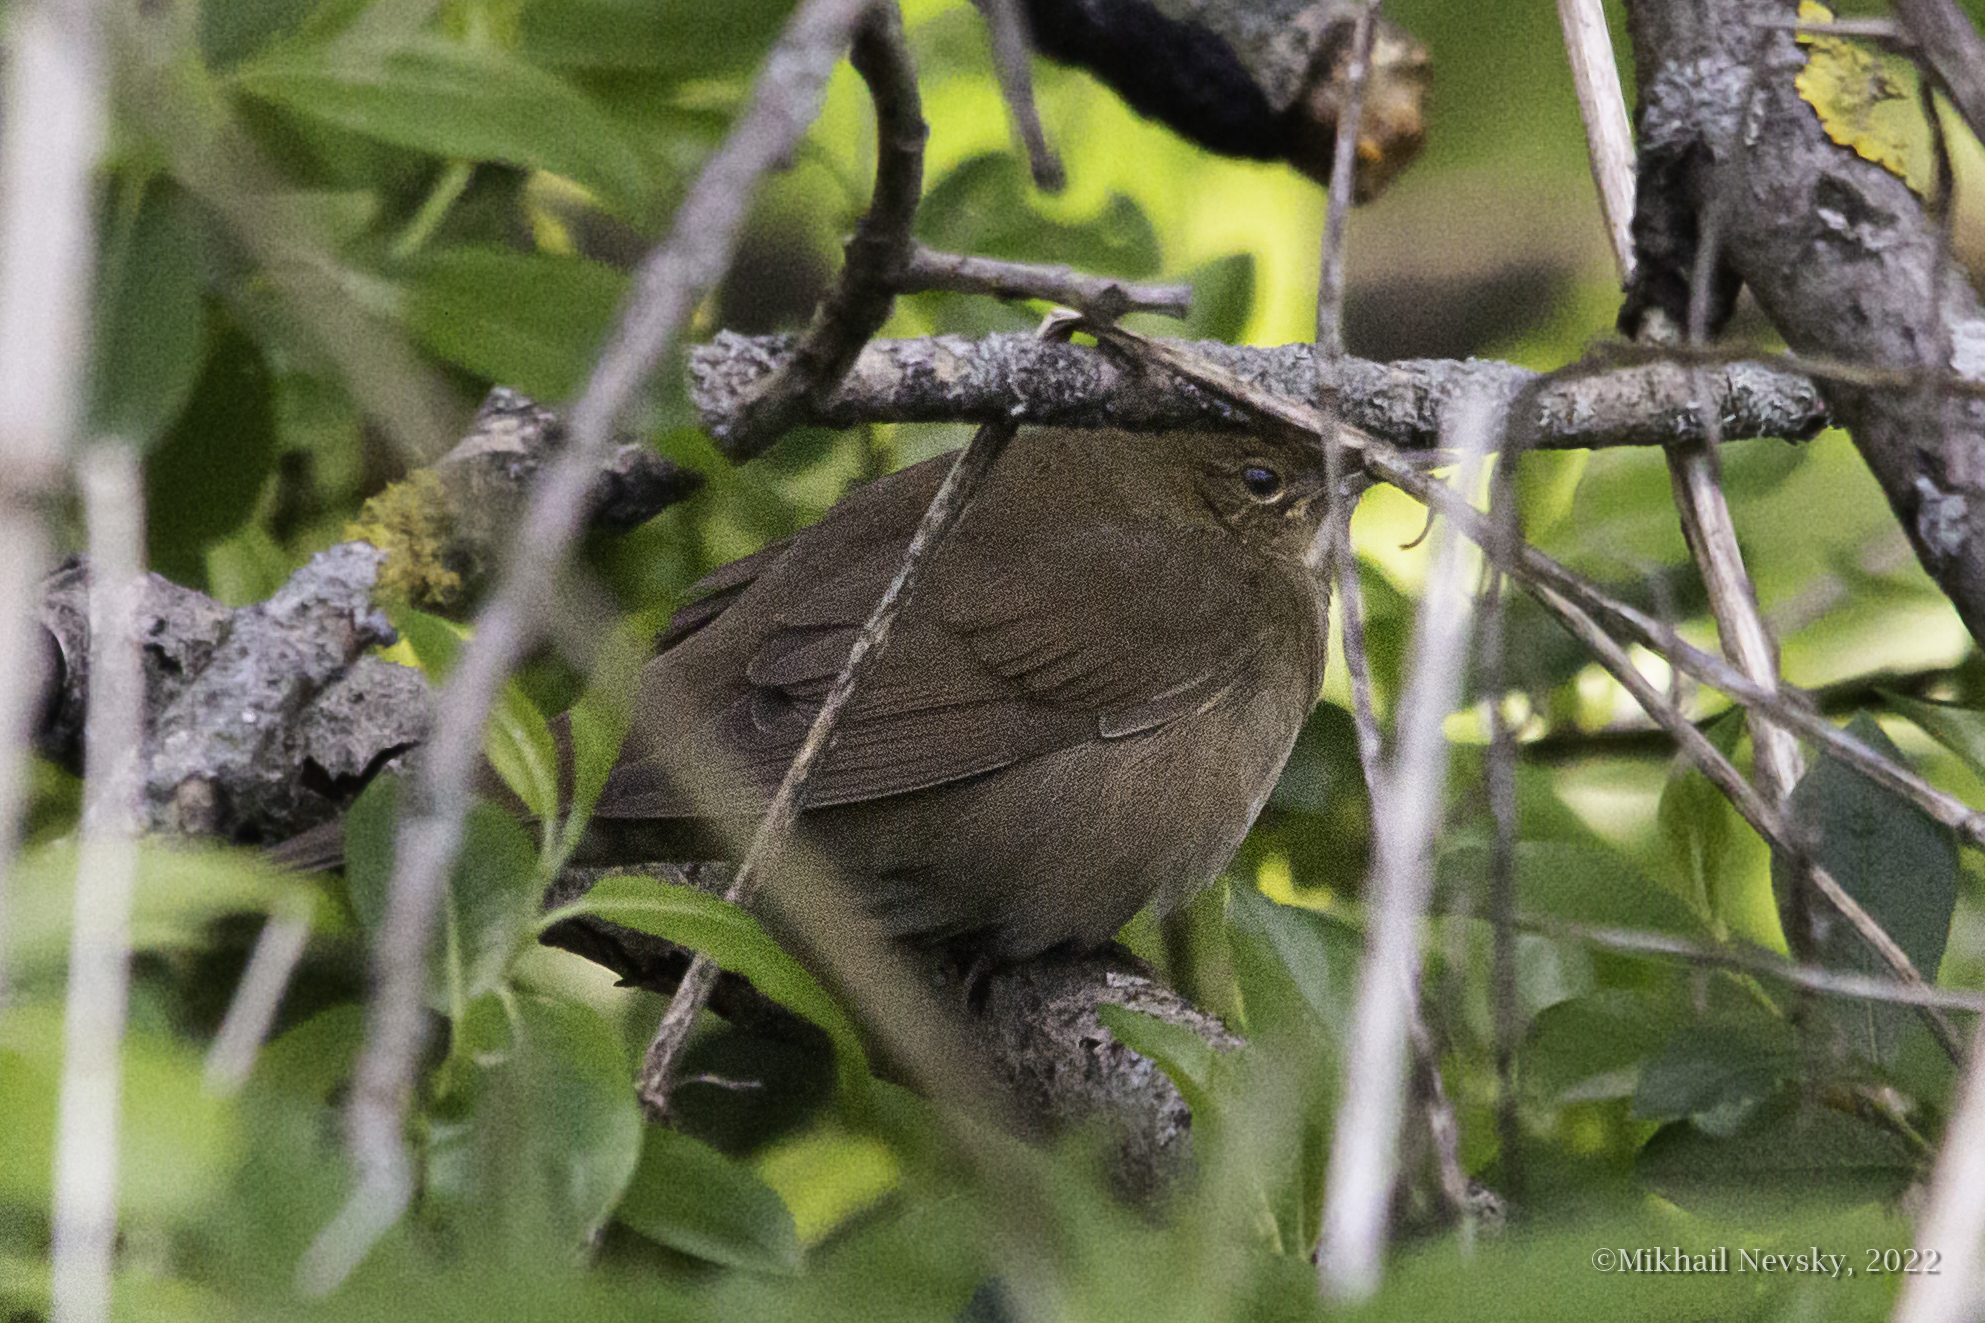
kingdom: Animalia
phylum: Chordata
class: Aves
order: Passeriformes
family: Locustellidae
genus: Locustella
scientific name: Locustella fluviatilis
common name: River warbler
